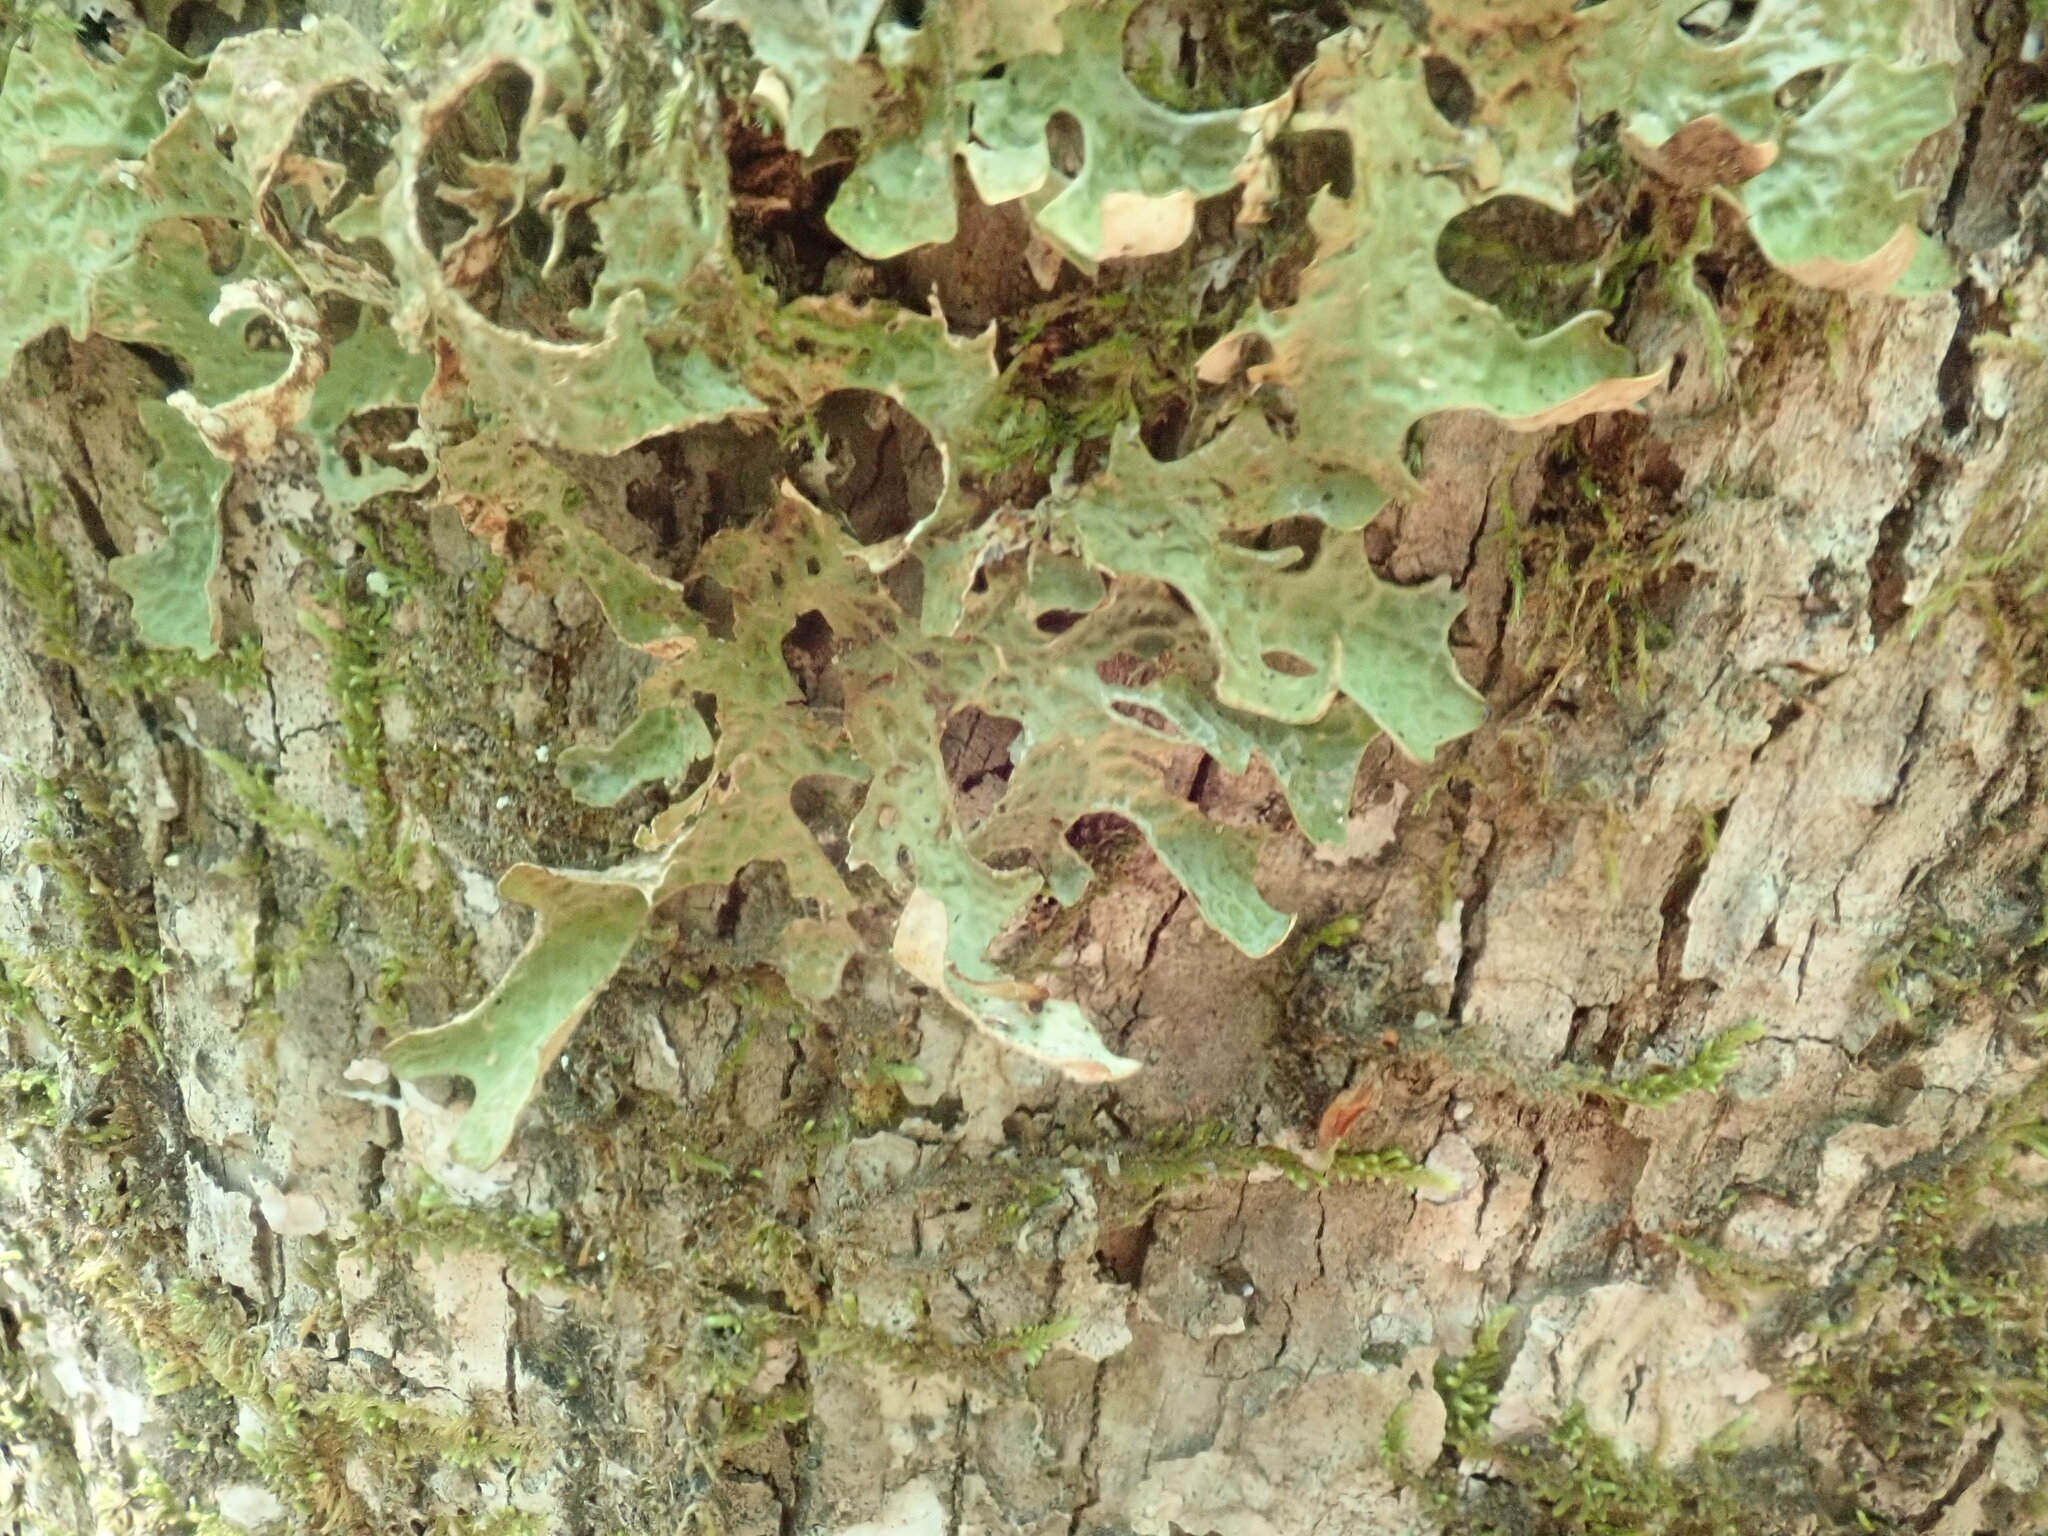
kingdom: Fungi
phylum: Ascomycota
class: Lecanoromycetes
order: Peltigerales
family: Lobariaceae
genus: Lobaria
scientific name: Lobaria pulmonaria
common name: Lungwort
